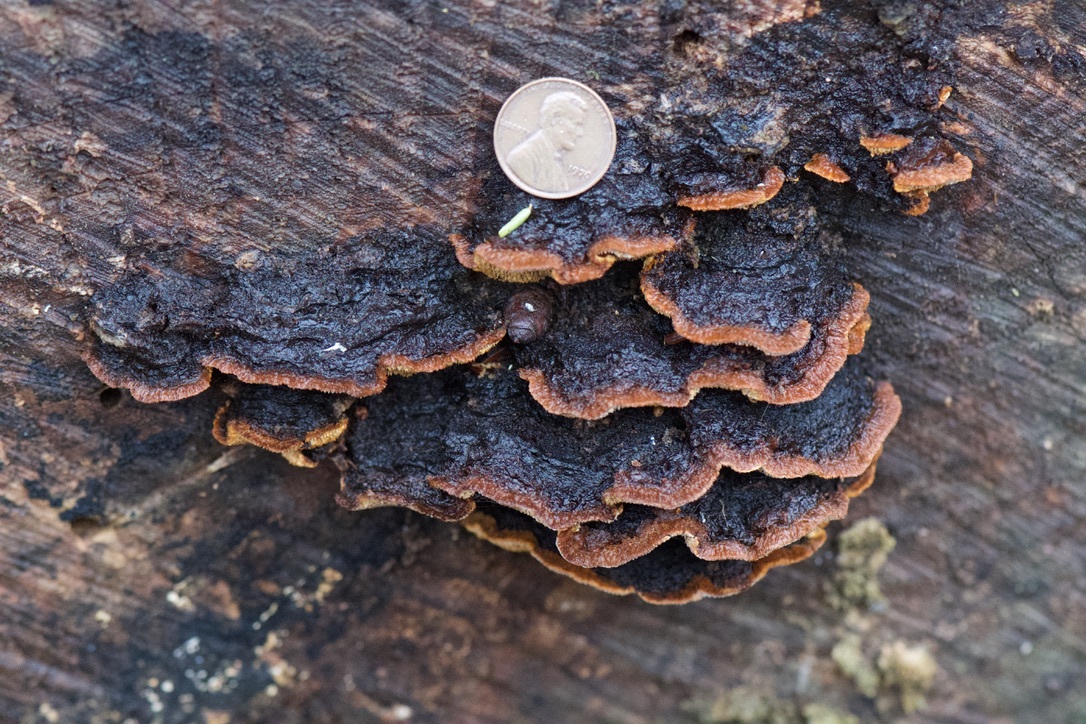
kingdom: Fungi
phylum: Basidiomycota
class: Agaricomycetes
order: Gloeophyllales
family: Gloeophyllaceae
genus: Gloeophyllum
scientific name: Gloeophyllum sepiarium
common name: Conifer mazegill
